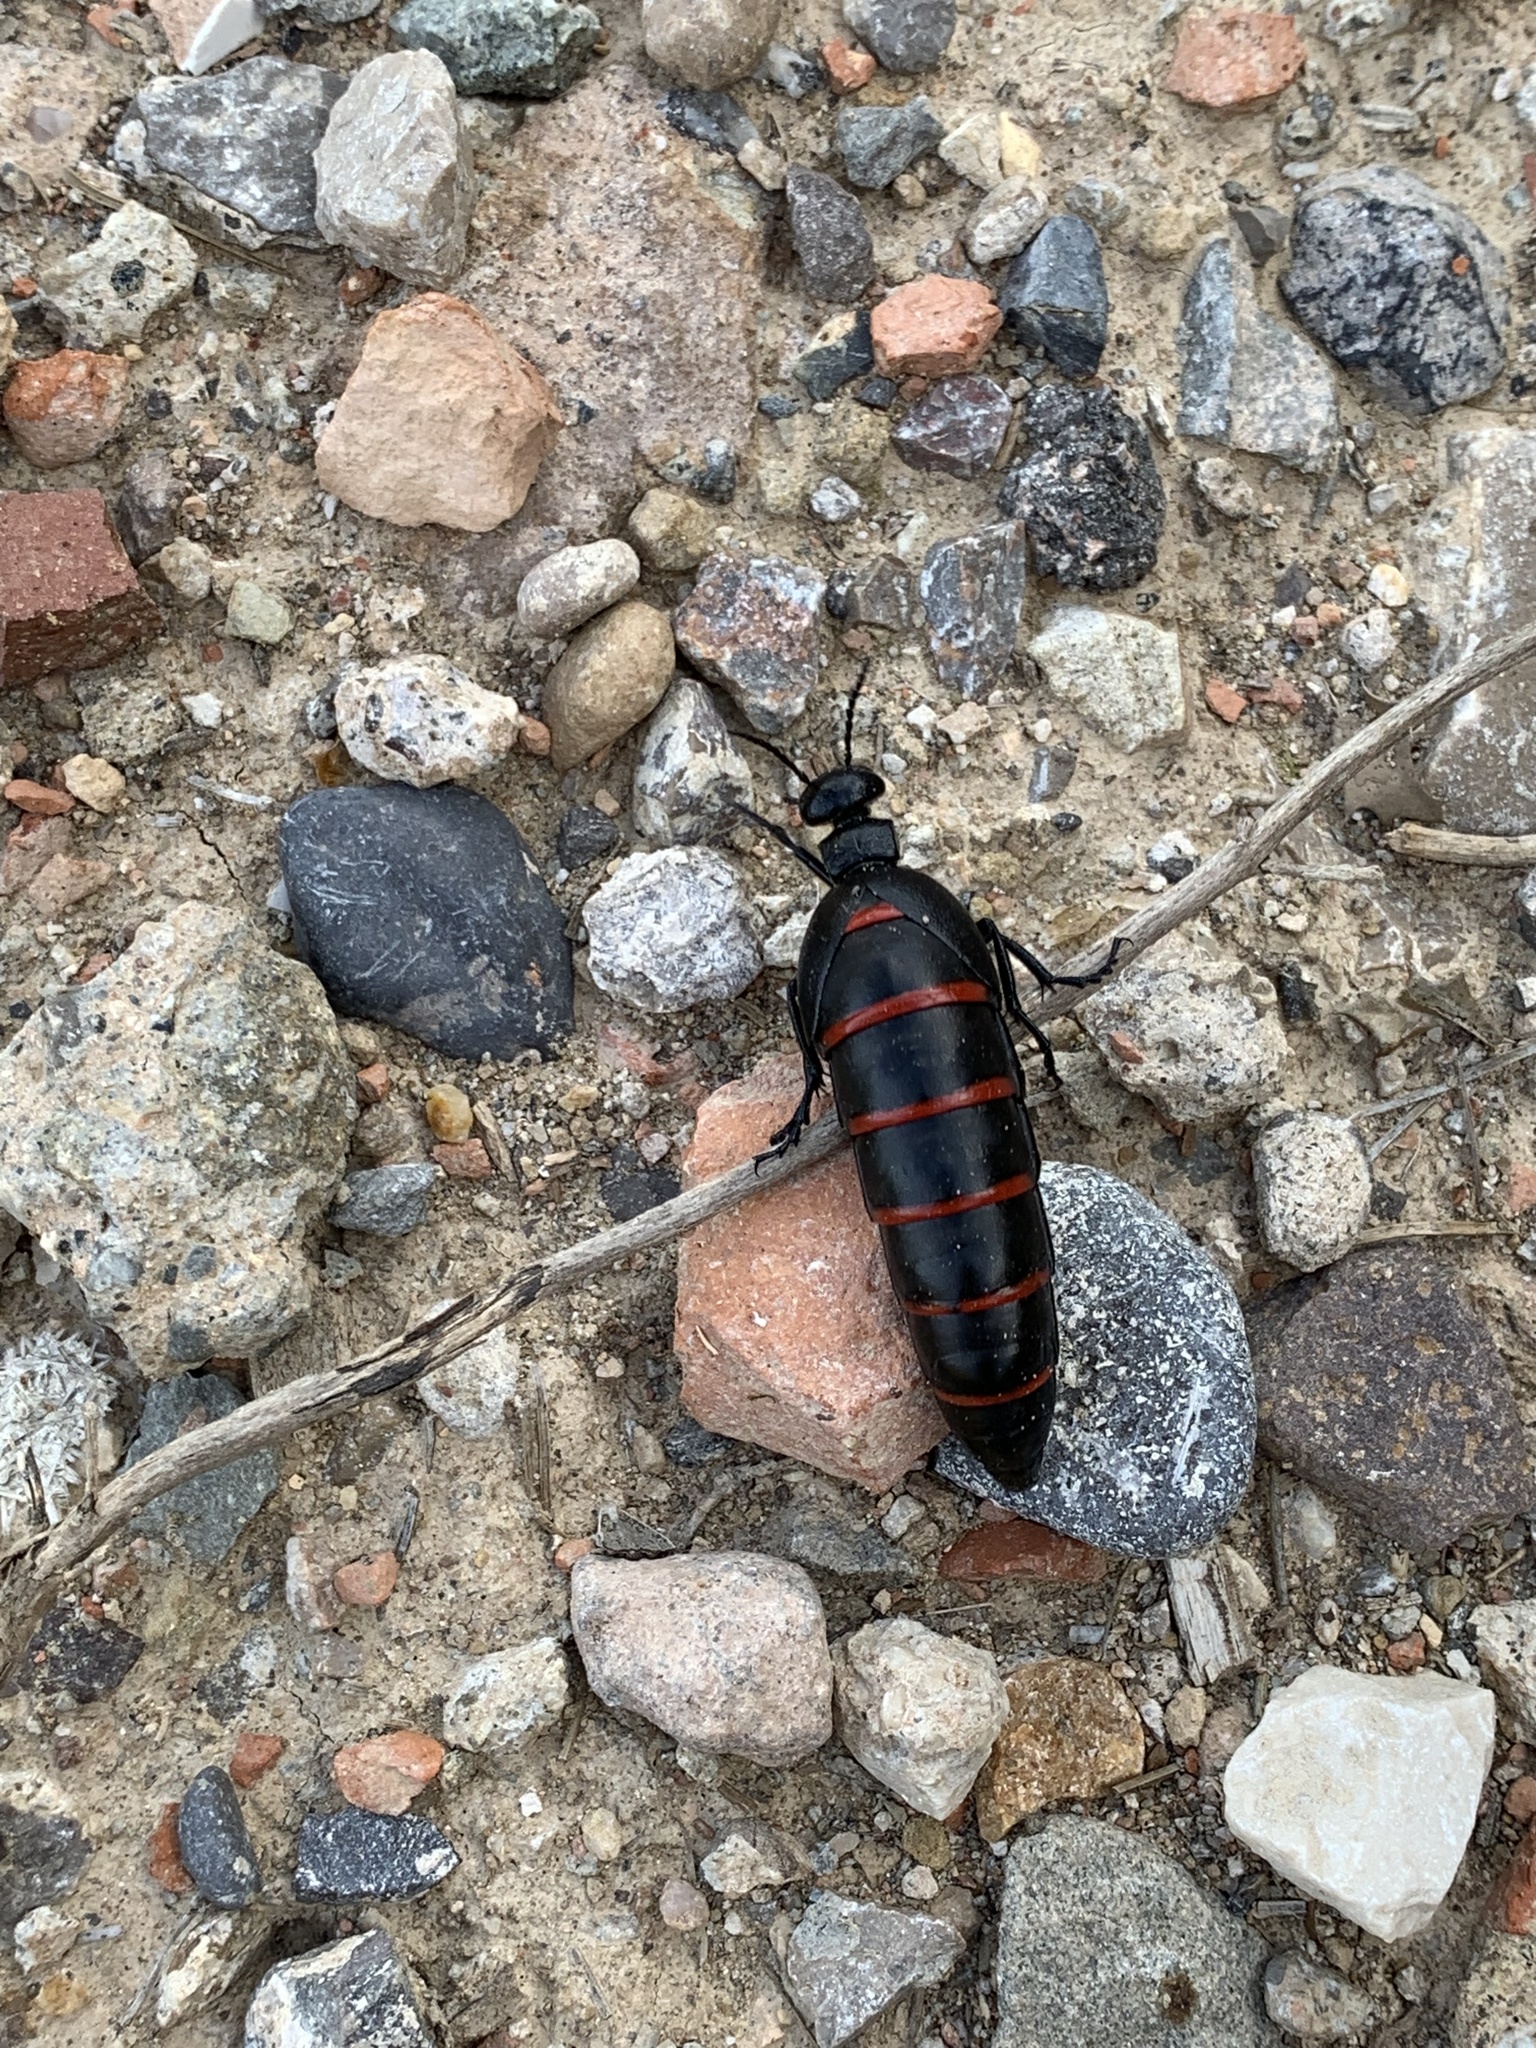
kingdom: Animalia
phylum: Arthropoda
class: Insecta
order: Coleoptera
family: Meloidae
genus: Berberomeloe
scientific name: Berberomeloe majalis
